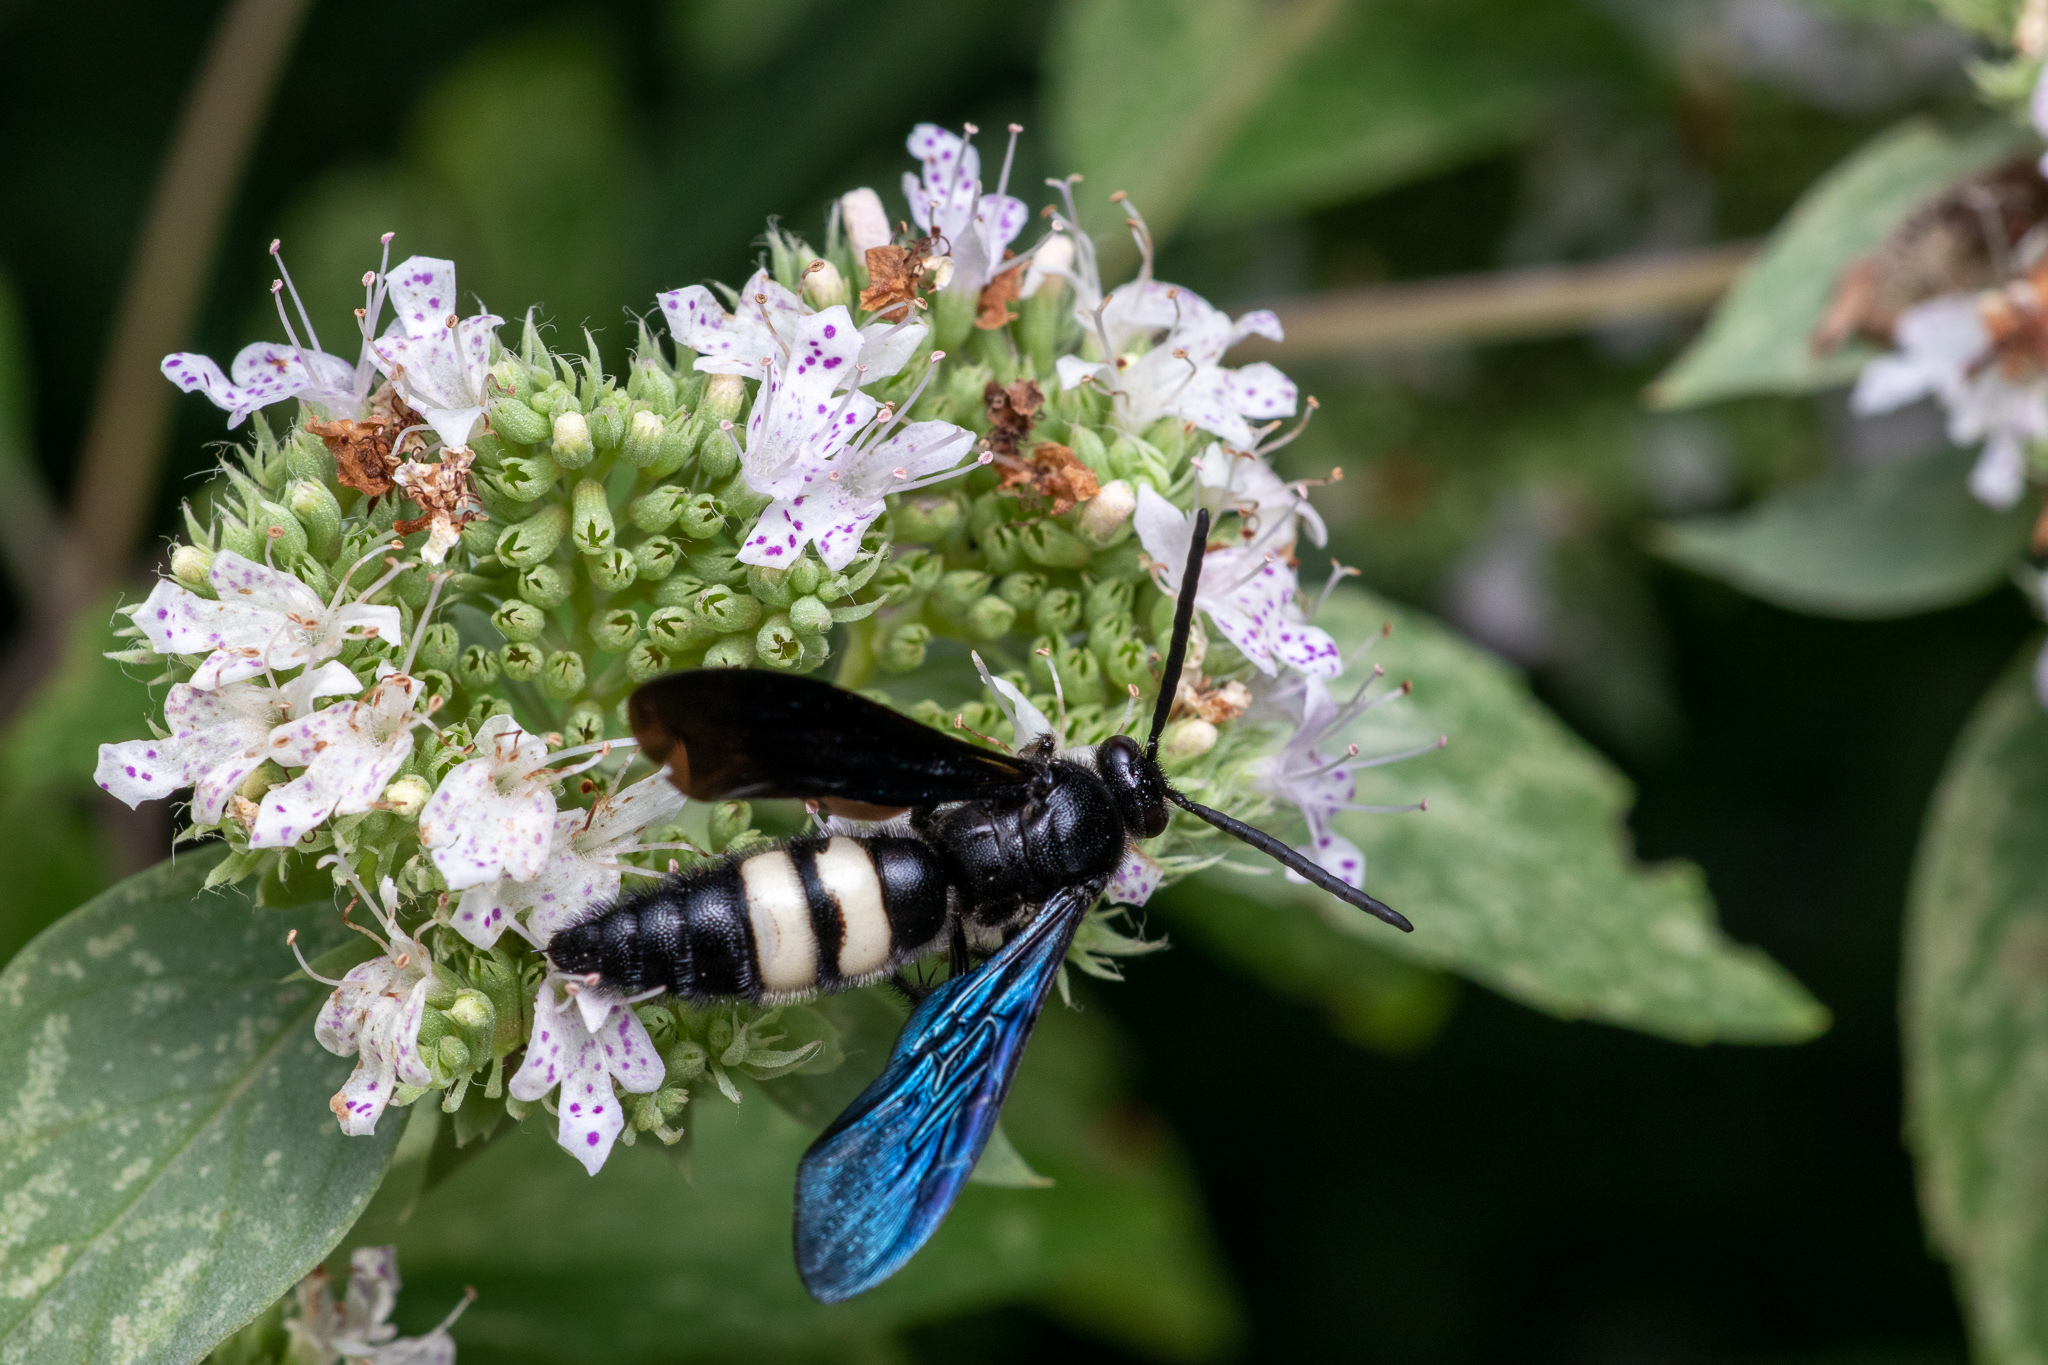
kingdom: Animalia
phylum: Arthropoda
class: Insecta
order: Hymenoptera
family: Scoliidae
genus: Scolia
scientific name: Scolia bicincta
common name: Double-banded scoliid wasp
